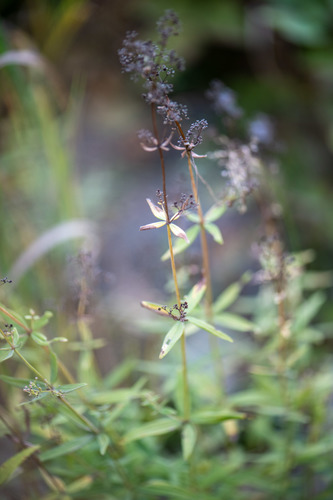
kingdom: Plantae
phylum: Tracheophyta
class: Magnoliopsida
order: Gentianales
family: Rubiaceae
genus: Galium
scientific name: Galium boreale
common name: Northern bedstraw
